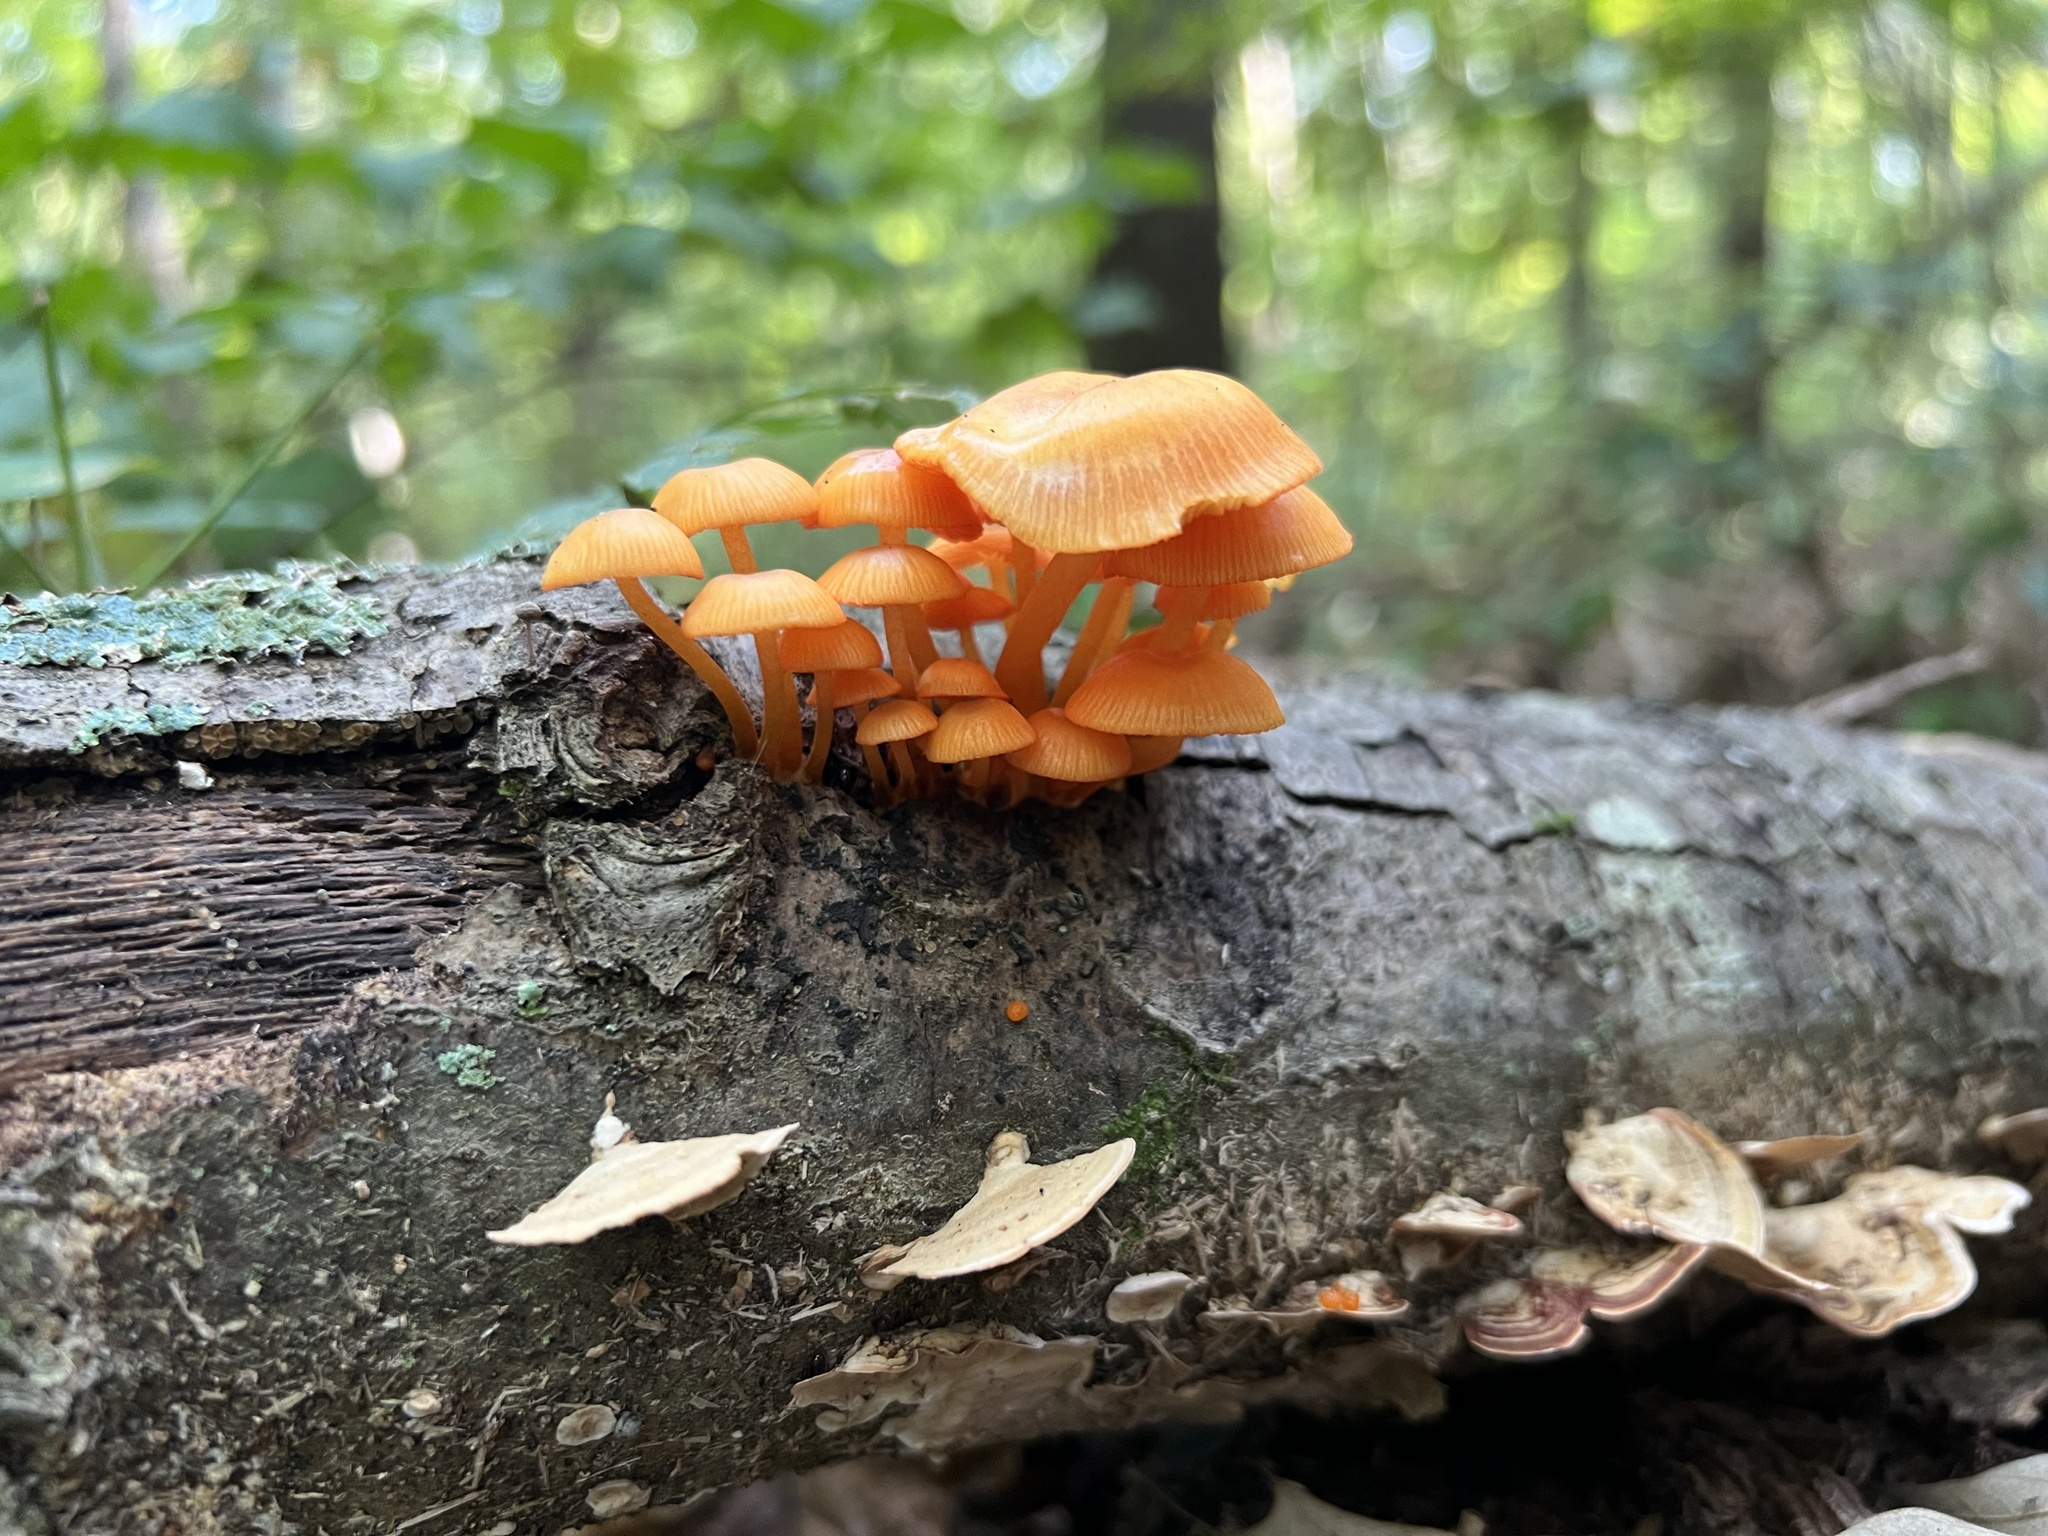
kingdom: Fungi
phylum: Basidiomycota
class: Agaricomycetes
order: Agaricales
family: Mycenaceae
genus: Mycena
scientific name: Mycena leaiana
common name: Orange mycena
